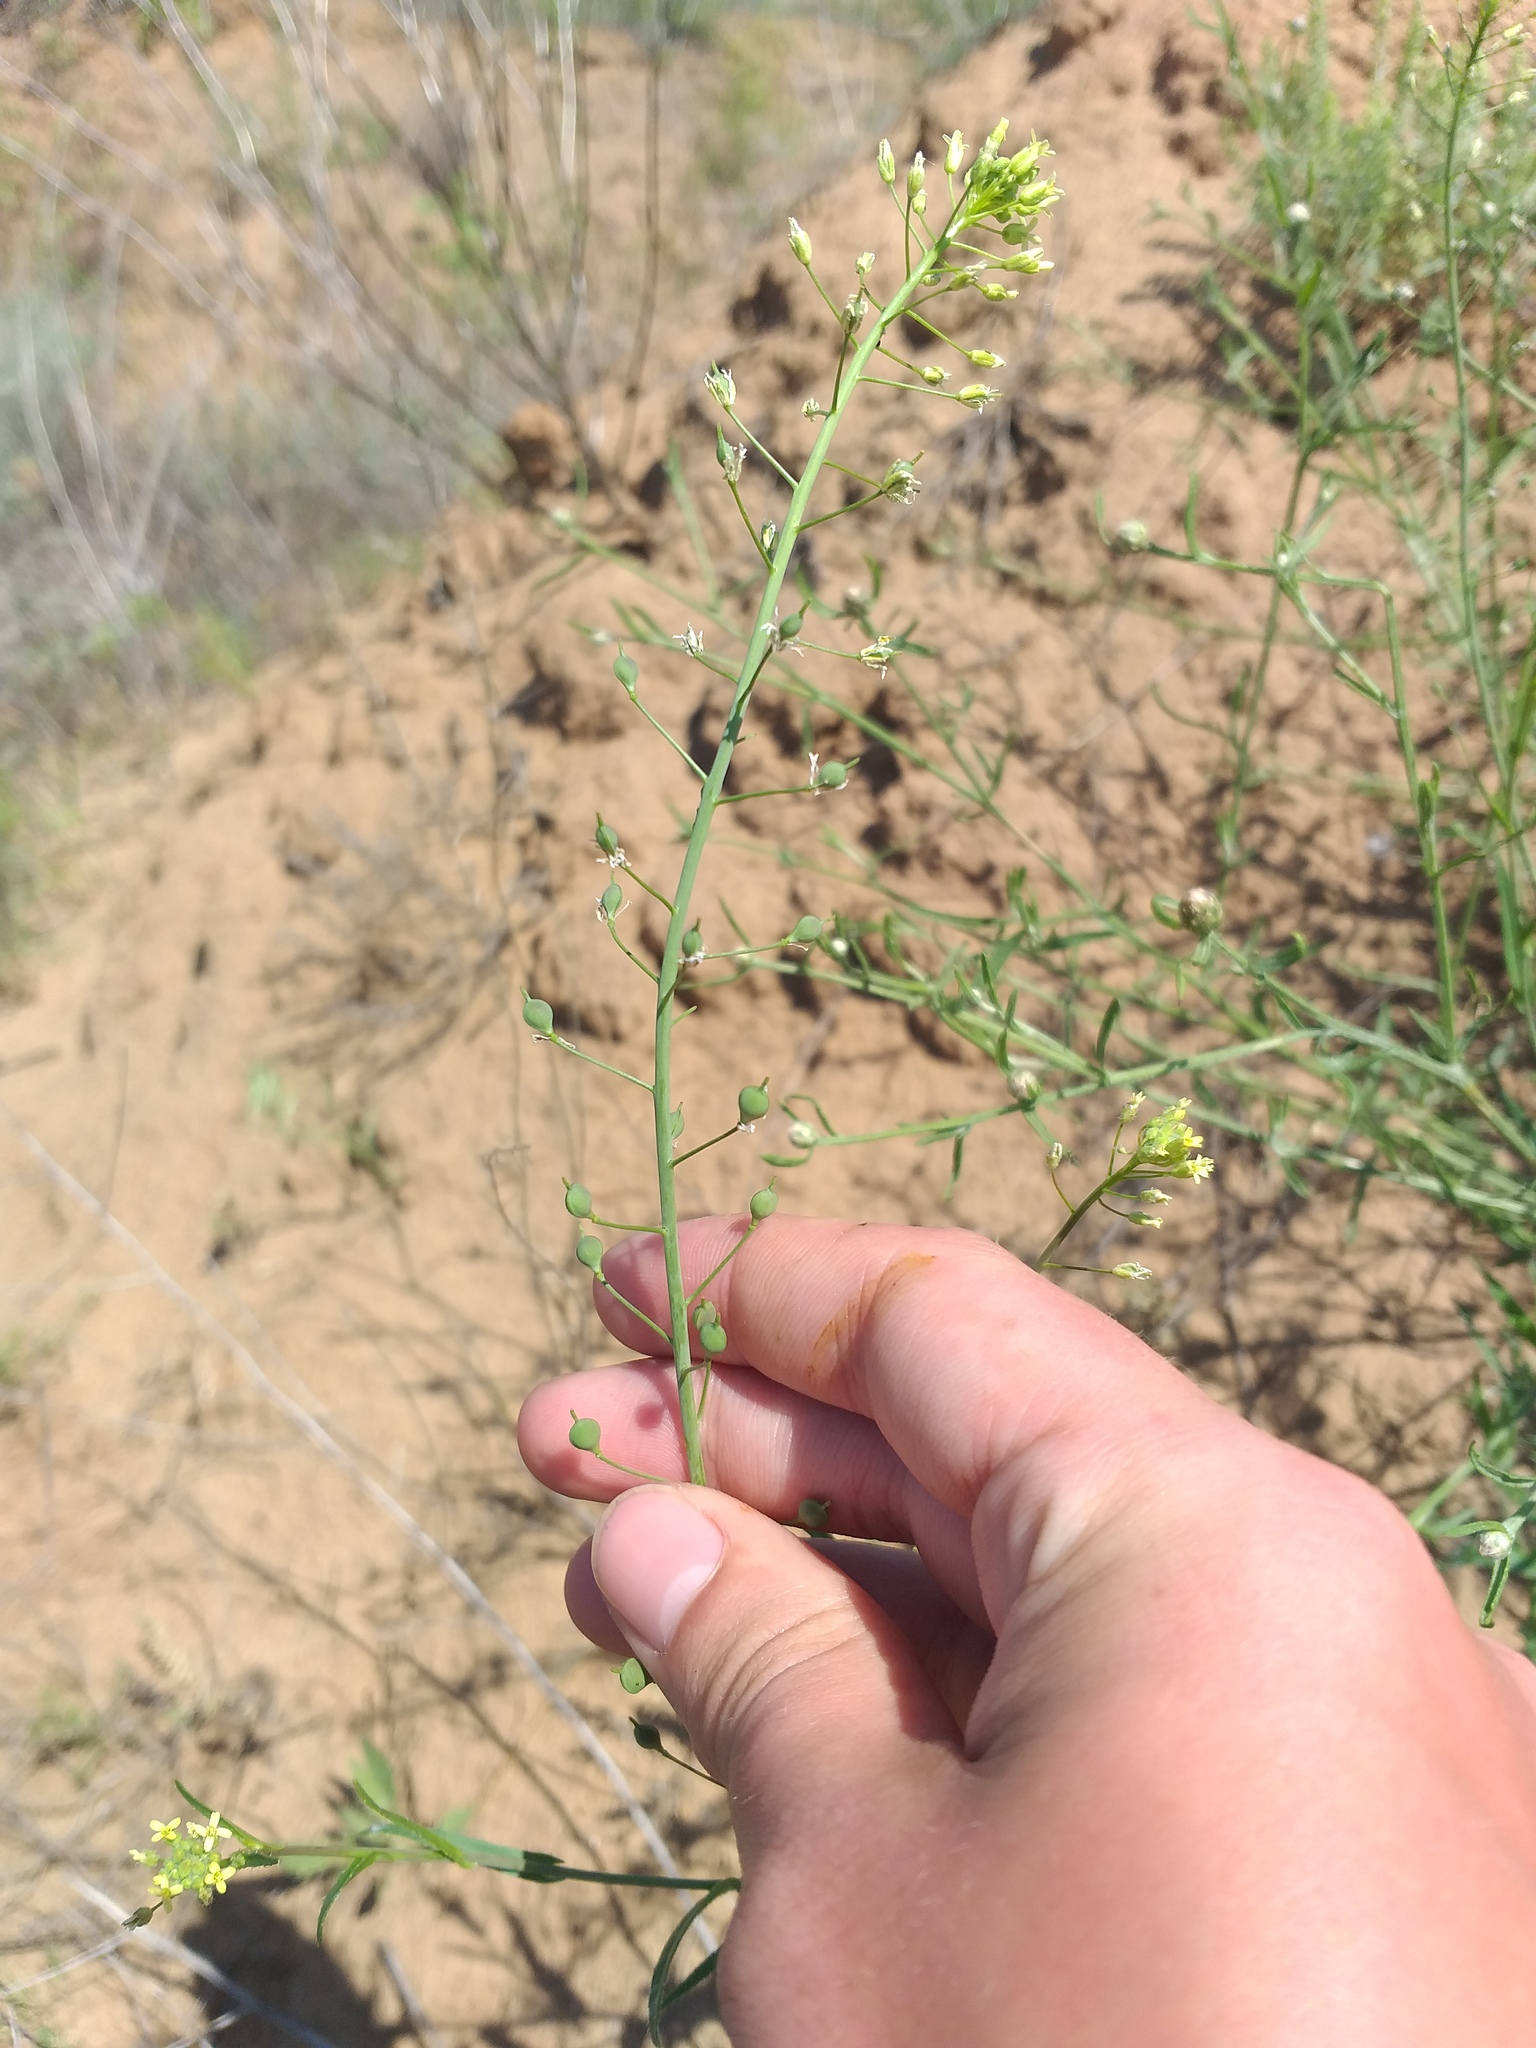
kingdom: Plantae
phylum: Tracheophyta
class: Magnoliopsida
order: Brassicales
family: Brassicaceae
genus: Camelina
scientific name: Camelina microcarpa
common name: Lesser gold-of-pleasure
